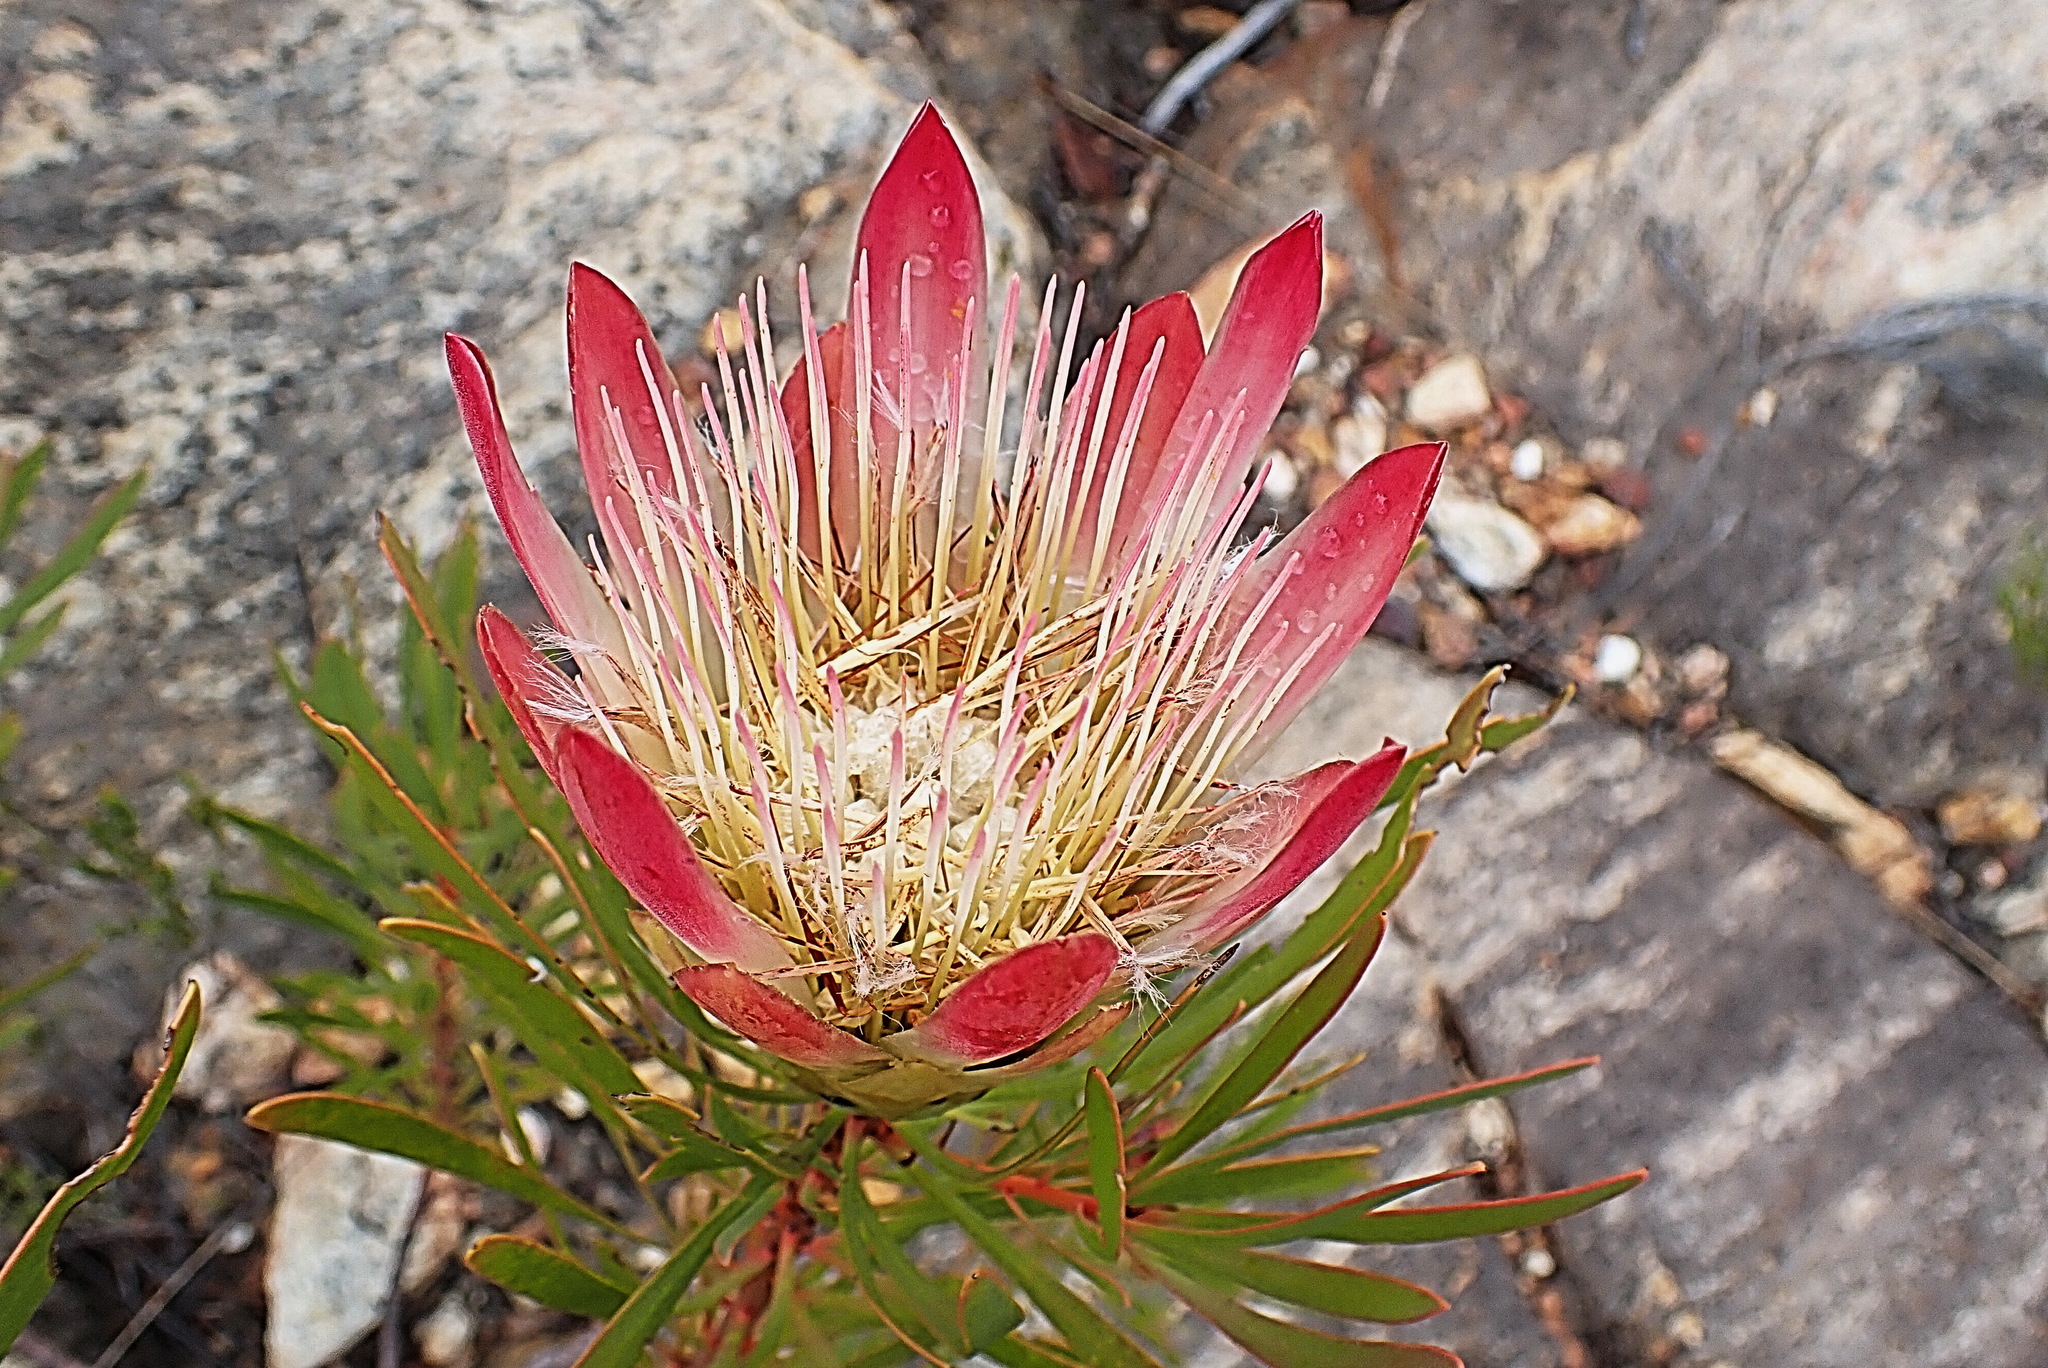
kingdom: Plantae
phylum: Tracheophyta
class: Magnoliopsida
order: Proteales
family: Proteaceae
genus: Protea
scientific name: Protea repens
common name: Sugarbush
